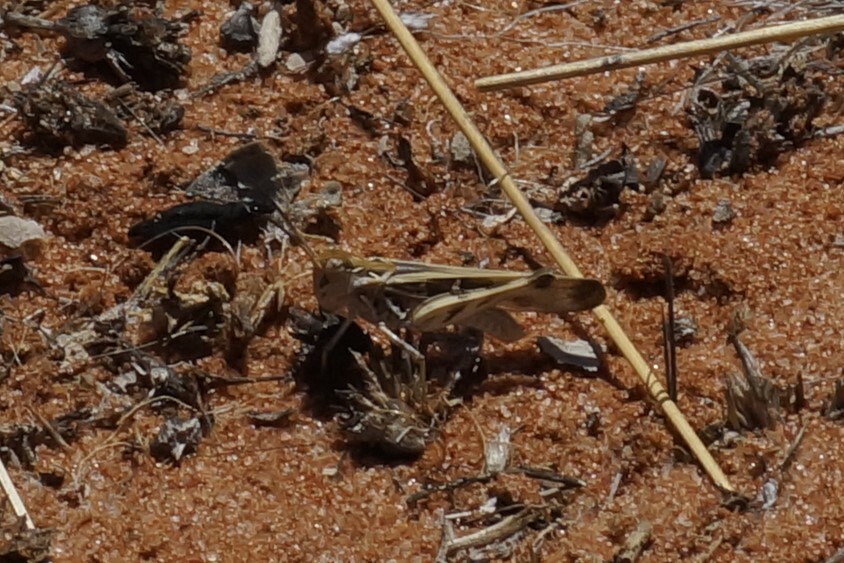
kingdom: Animalia
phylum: Arthropoda
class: Insecta
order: Orthoptera
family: Acrididae
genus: Oedaleus
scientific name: Oedaleus australis
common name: Eastern oedaleus
